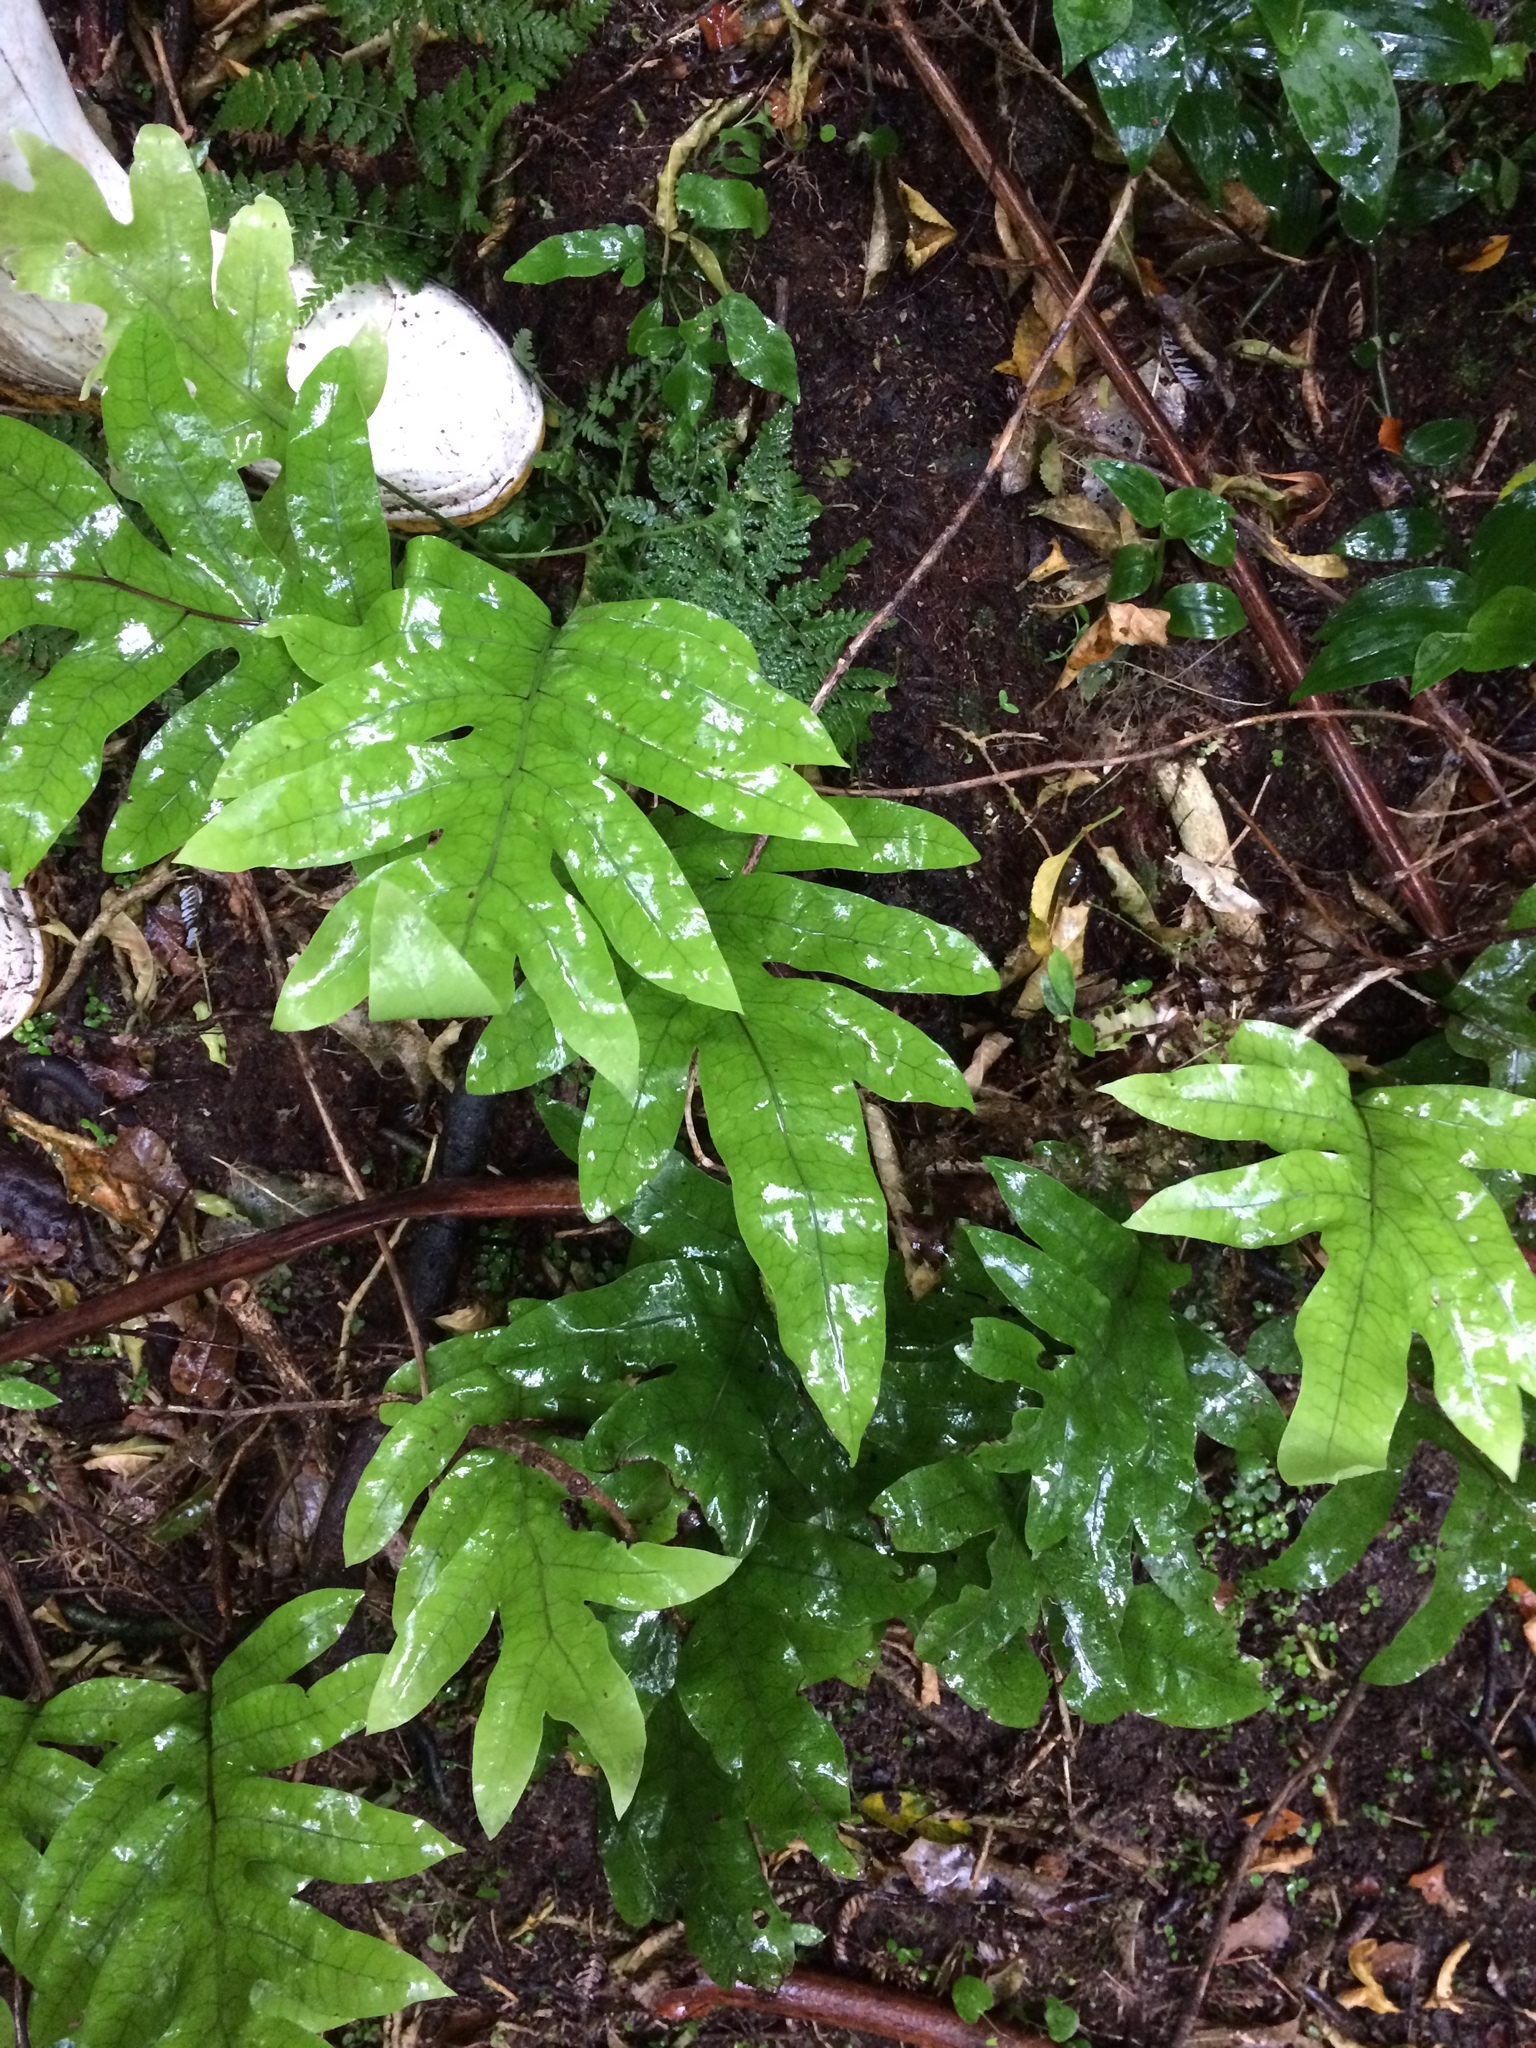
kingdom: Plantae
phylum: Tracheophyta
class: Polypodiopsida
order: Polypodiales
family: Polypodiaceae
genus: Lecanopteris
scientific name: Lecanopteris pustulata
